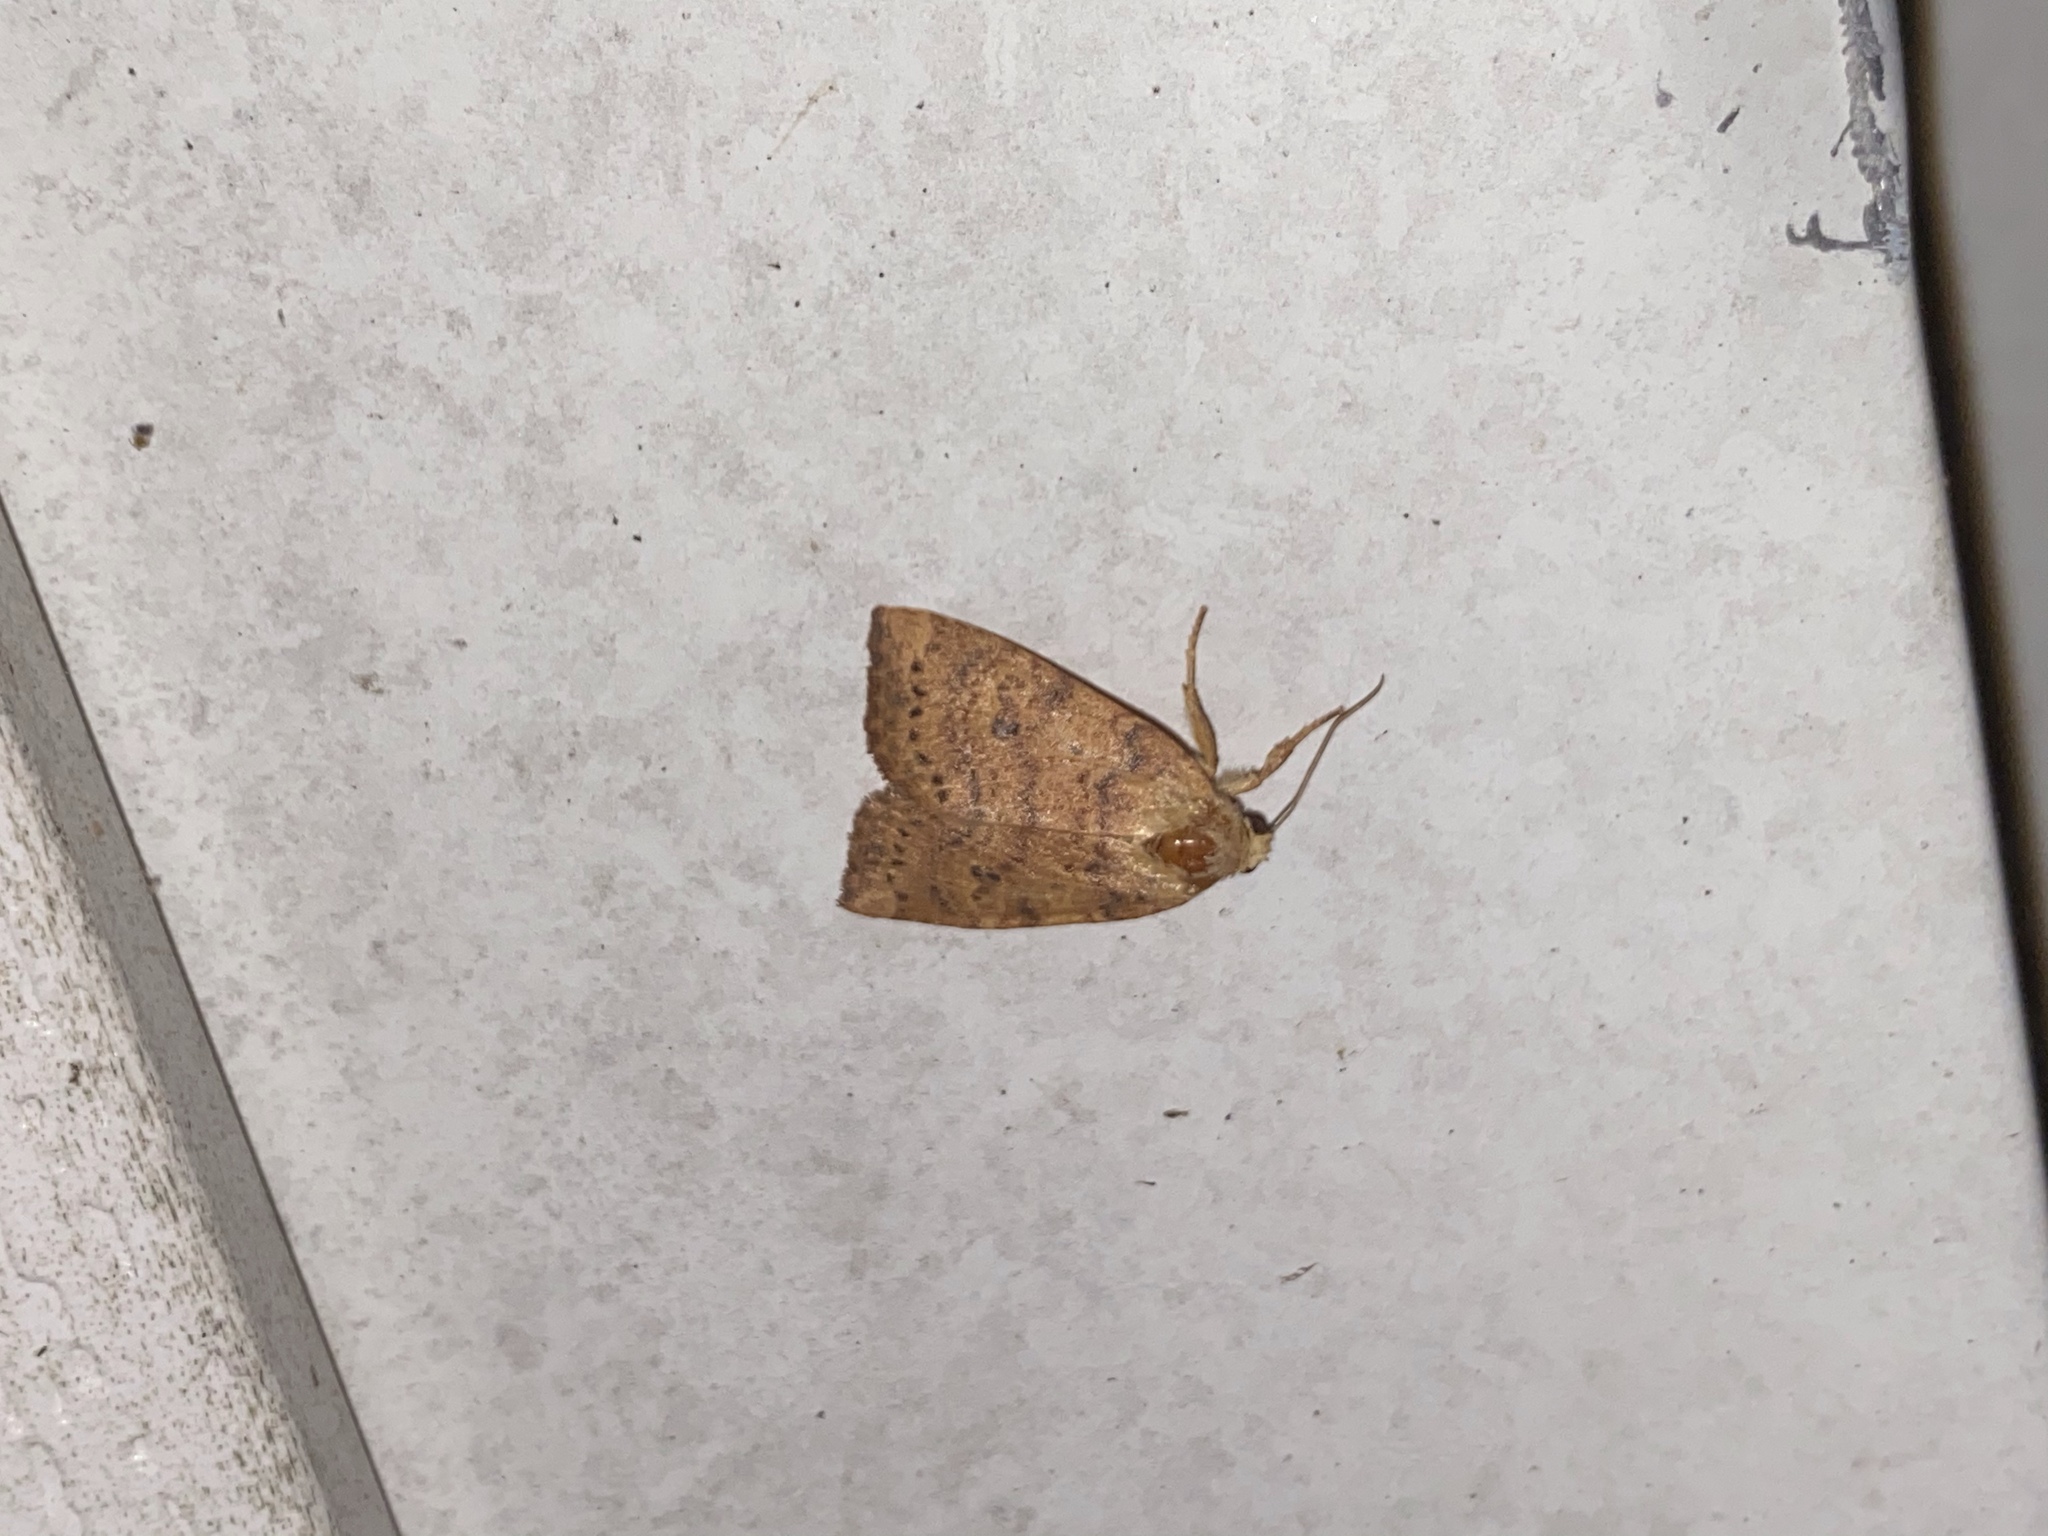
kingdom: Animalia
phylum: Arthropoda
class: Insecta
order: Lepidoptera
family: Noctuidae
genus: Anathix
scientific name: Anathix ralla
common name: Dotted sallow
